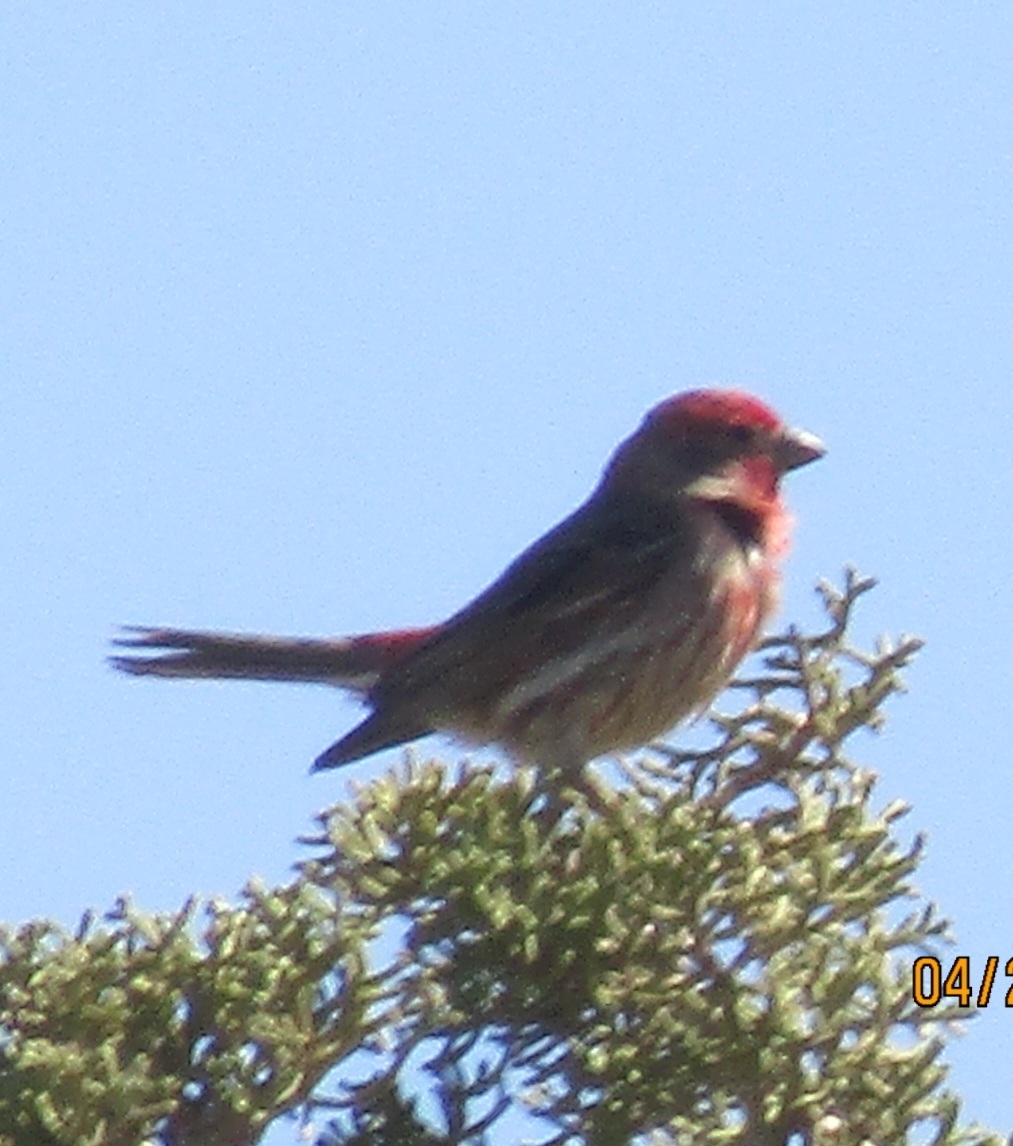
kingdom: Animalia
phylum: Chordata
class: Aves
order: Passeriformes
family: Fringillidae
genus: Haemorhous
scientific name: Haemorhous mexicanus
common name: House finch
